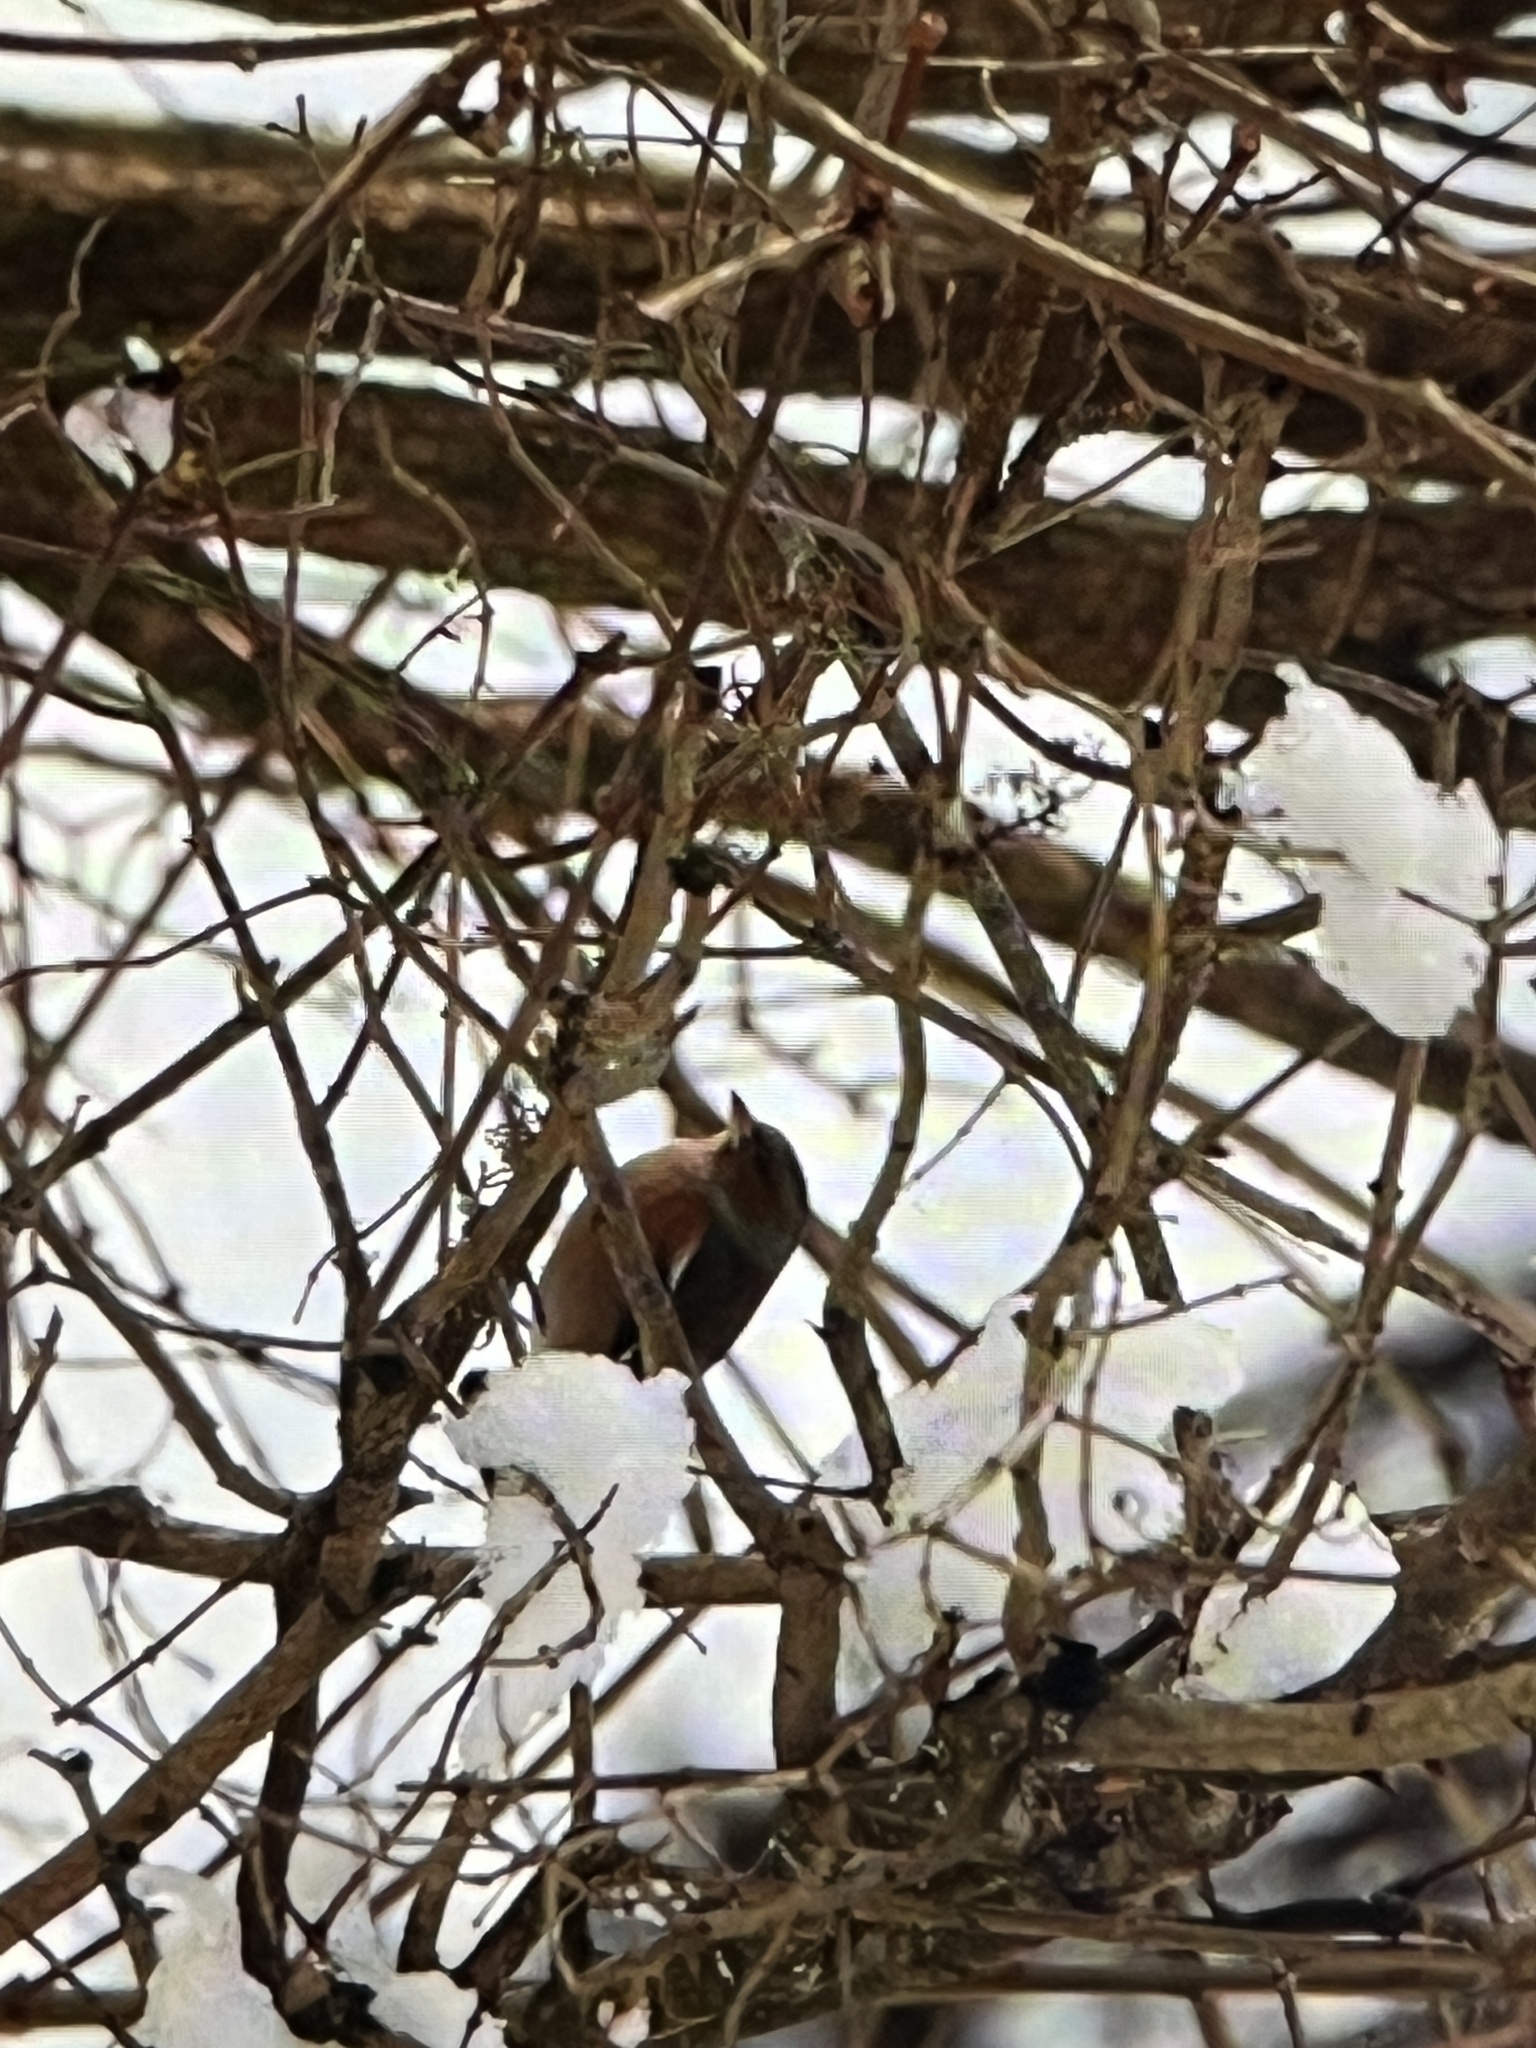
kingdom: Animalia
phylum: Chordata
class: Aves
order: Passeriformes
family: Fringillidae
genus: Fringilla
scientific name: Fringilla coelebs
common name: Common chaffinch
